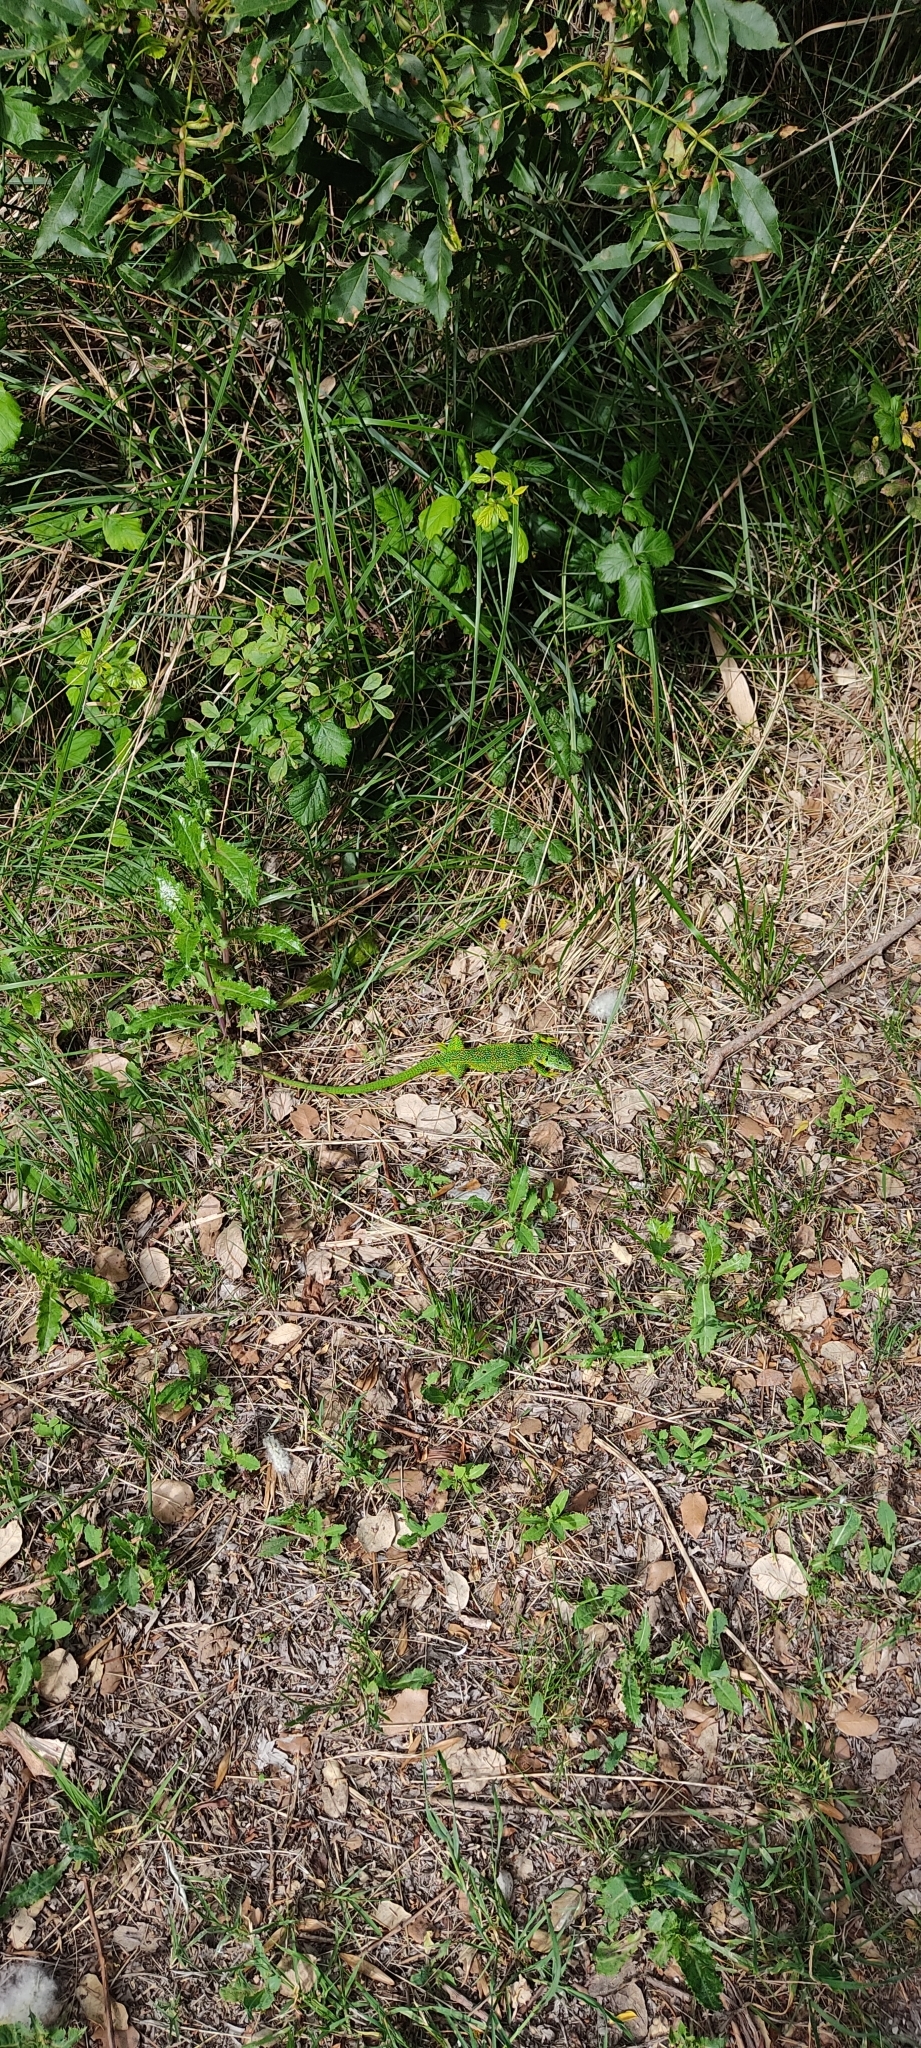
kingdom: Animalia
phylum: Chordata
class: Squamata
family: Lacertidae
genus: Lacerta
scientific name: Lacerta bilineata
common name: Western green lizard
